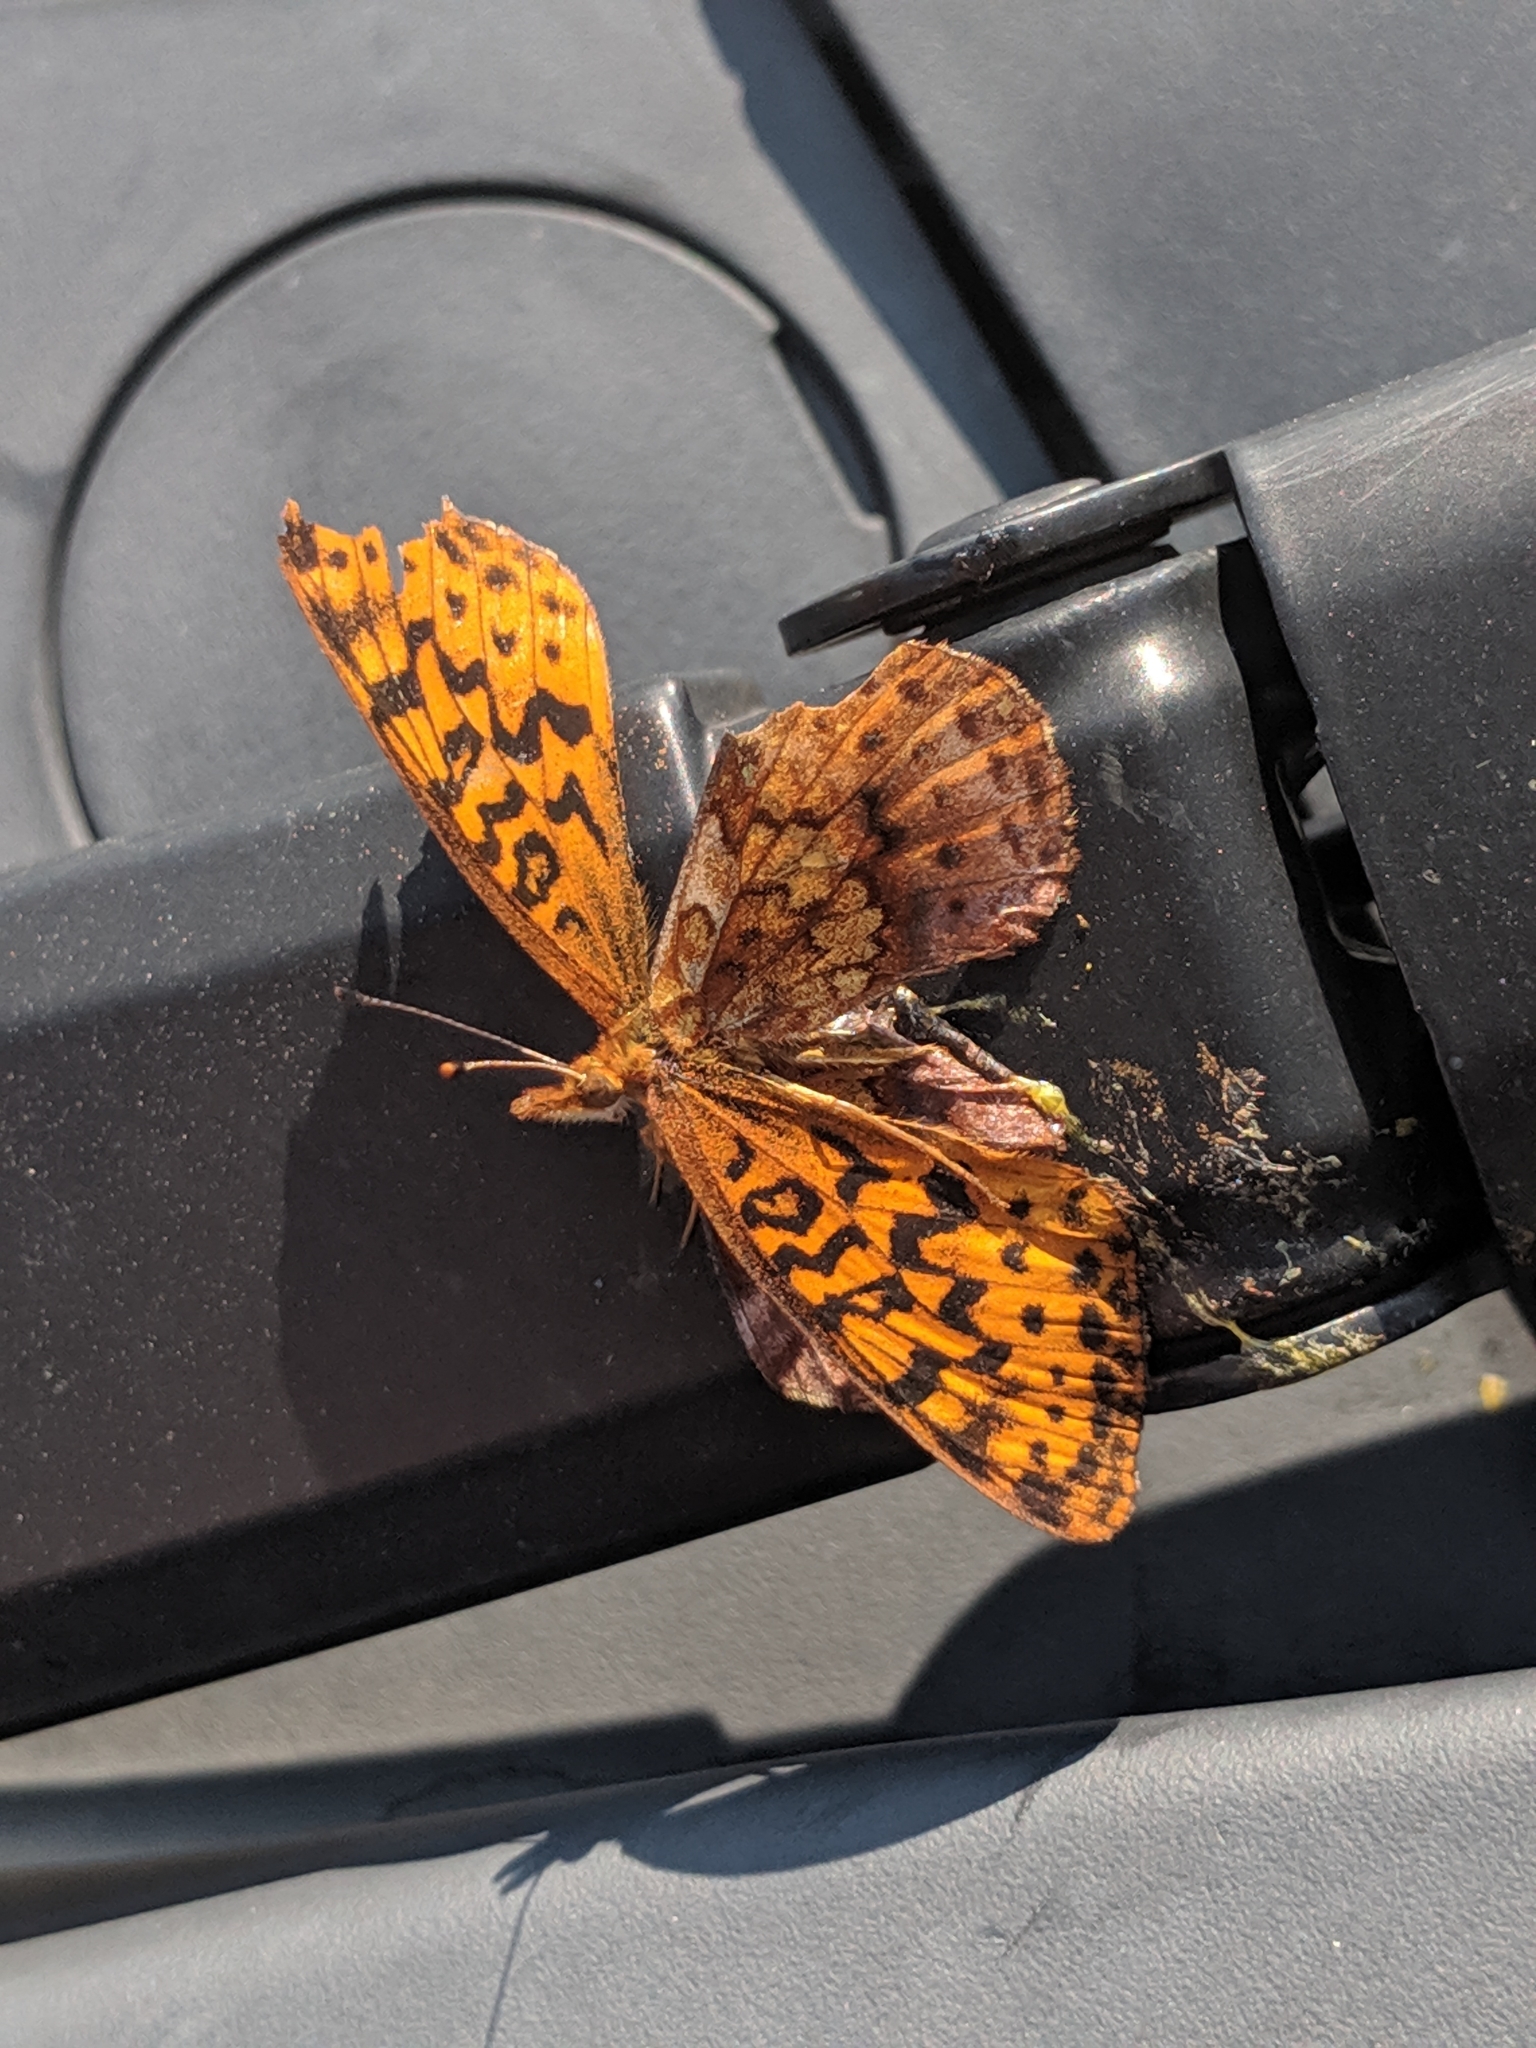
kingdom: Animalia
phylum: Arthropoda
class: Insecta
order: Lepidoptera
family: Nymphalidae
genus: Clossiana
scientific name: Clossiana toddi
